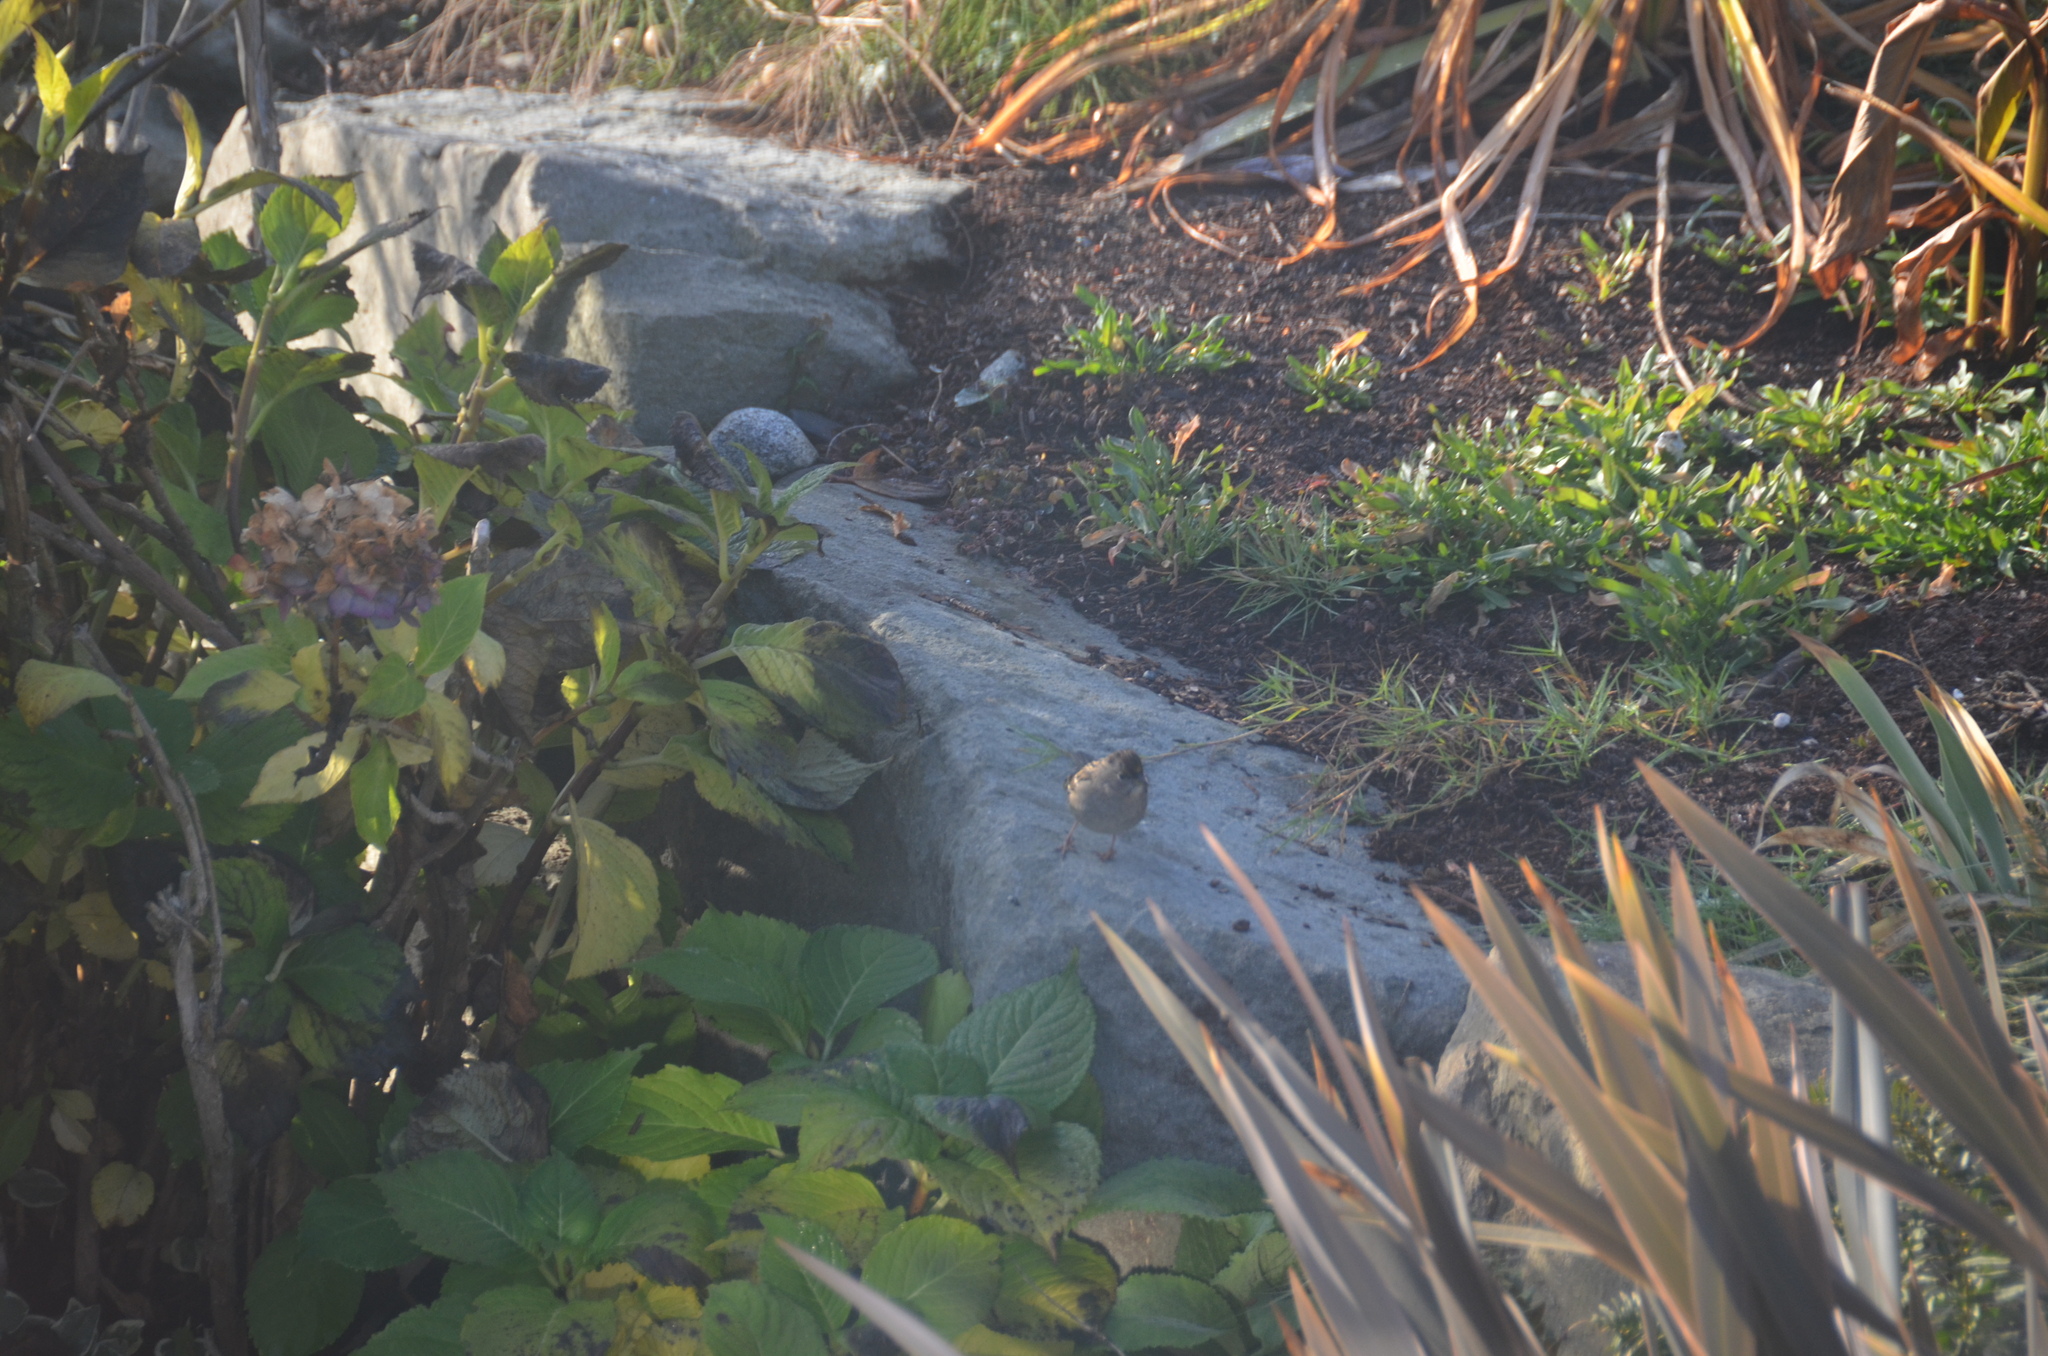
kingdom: Animalia
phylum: Chordata
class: Aves
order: Passeriformes
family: Passerellidae
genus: Zonotrichia
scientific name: Zonotrichia atricapilla
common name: Golden-crowned sparrow
